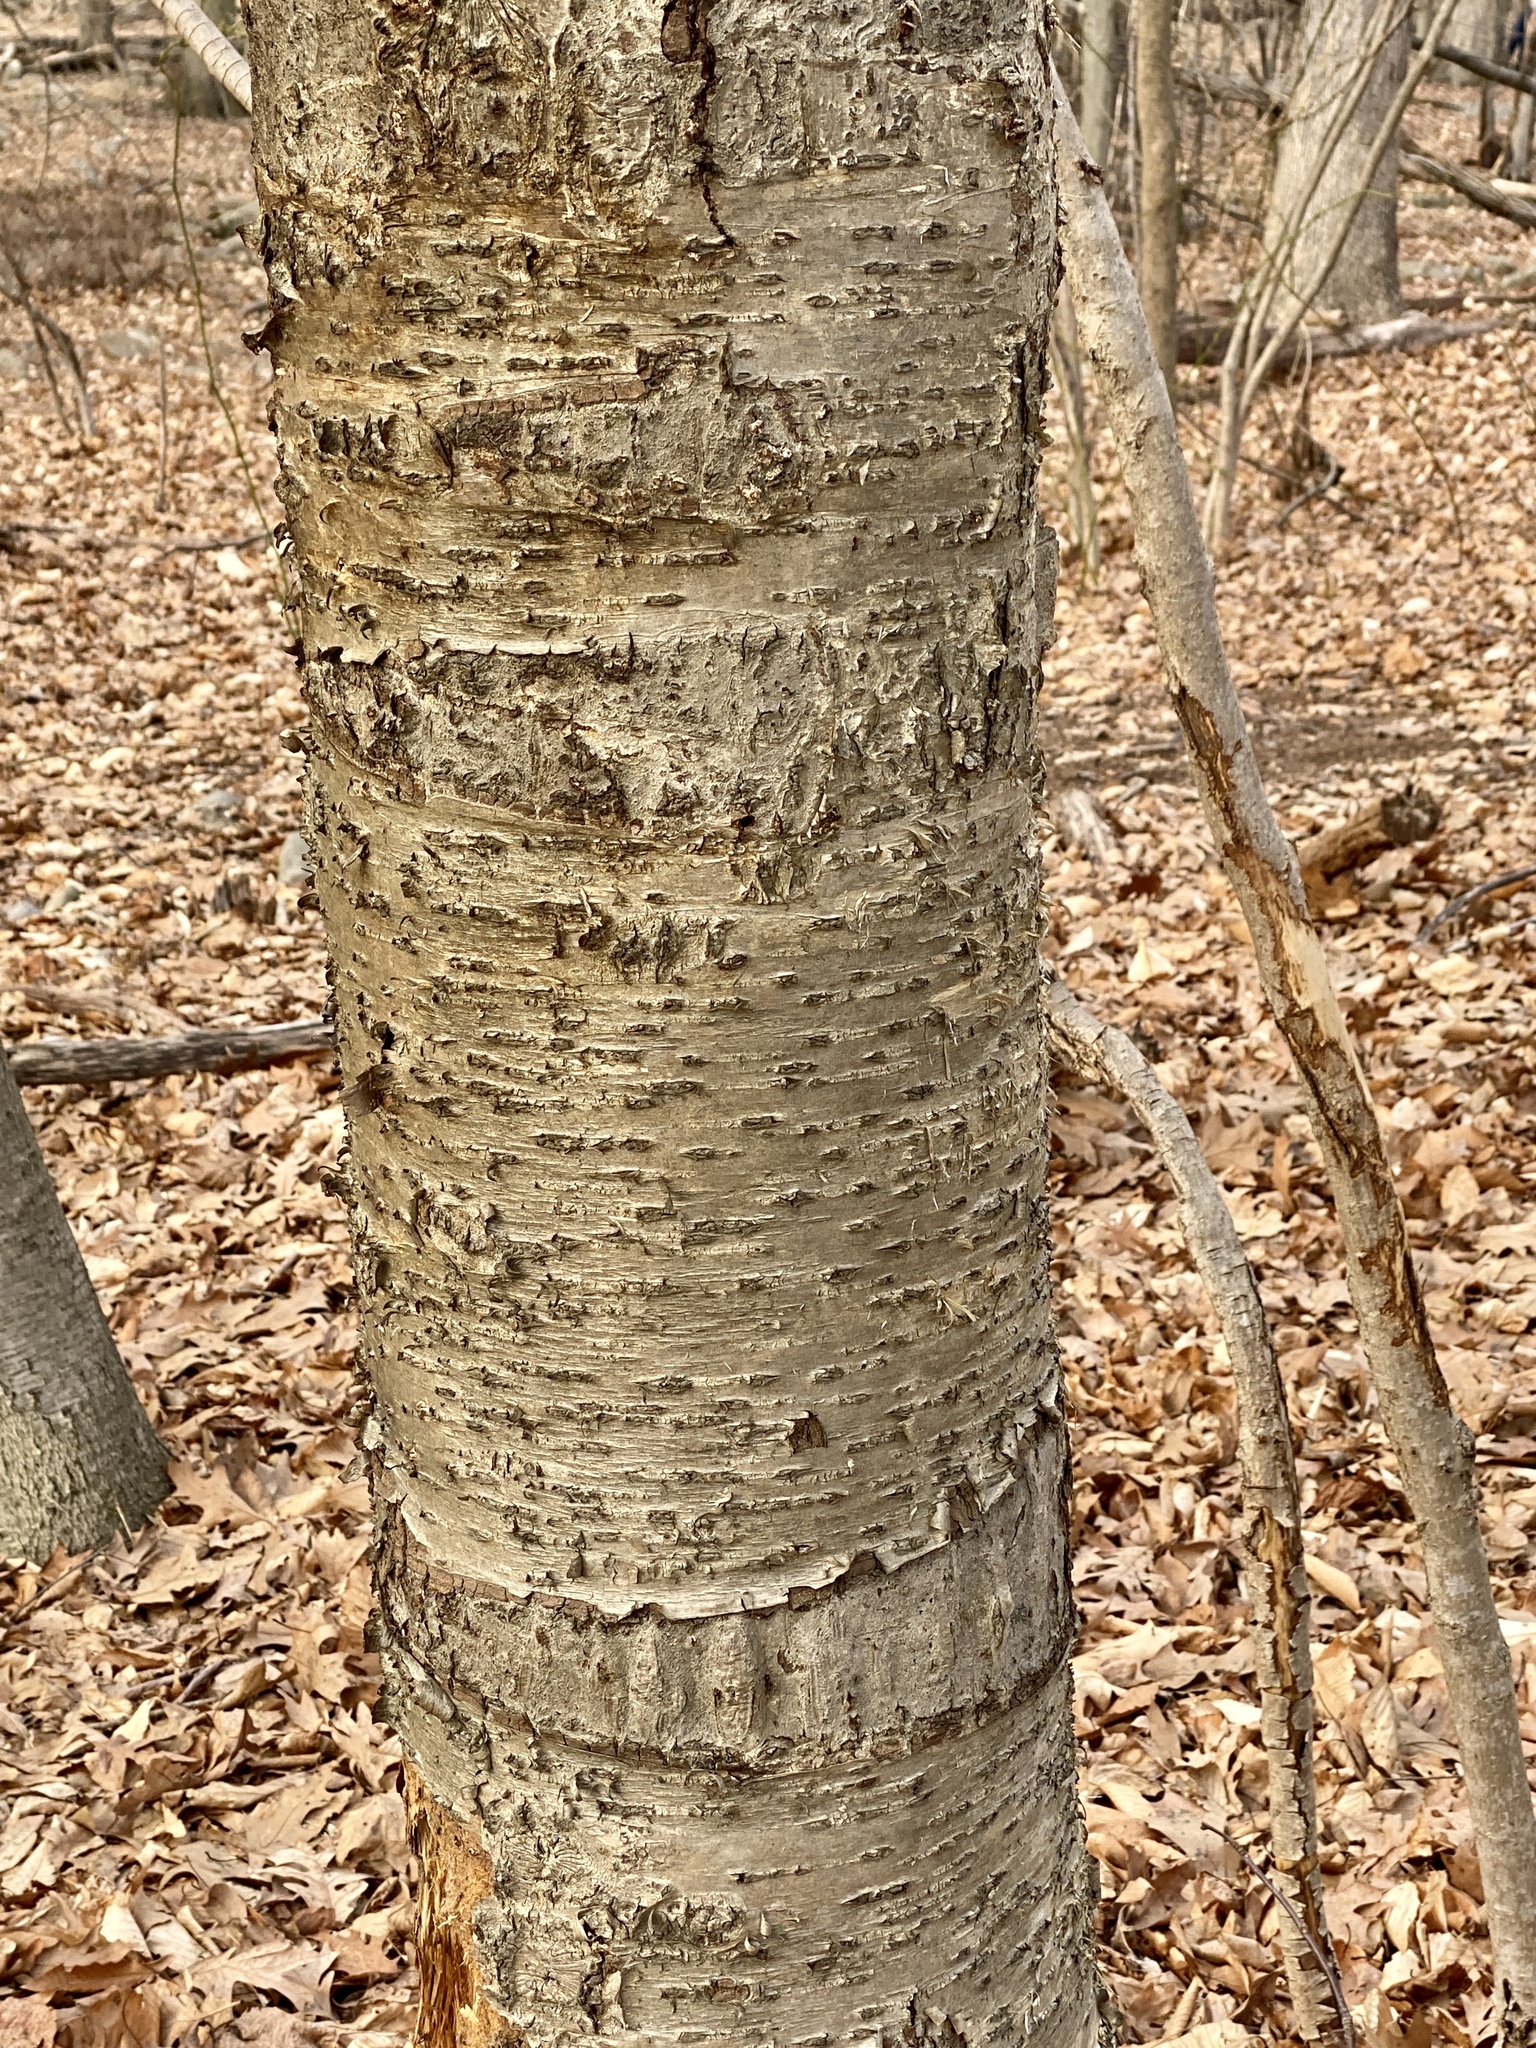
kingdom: Plantae
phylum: Tracheophyta
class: Magnoliopsida
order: Fagales
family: Betulaceae
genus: Betula
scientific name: Betula alleghaniensis
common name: Yellow birch
